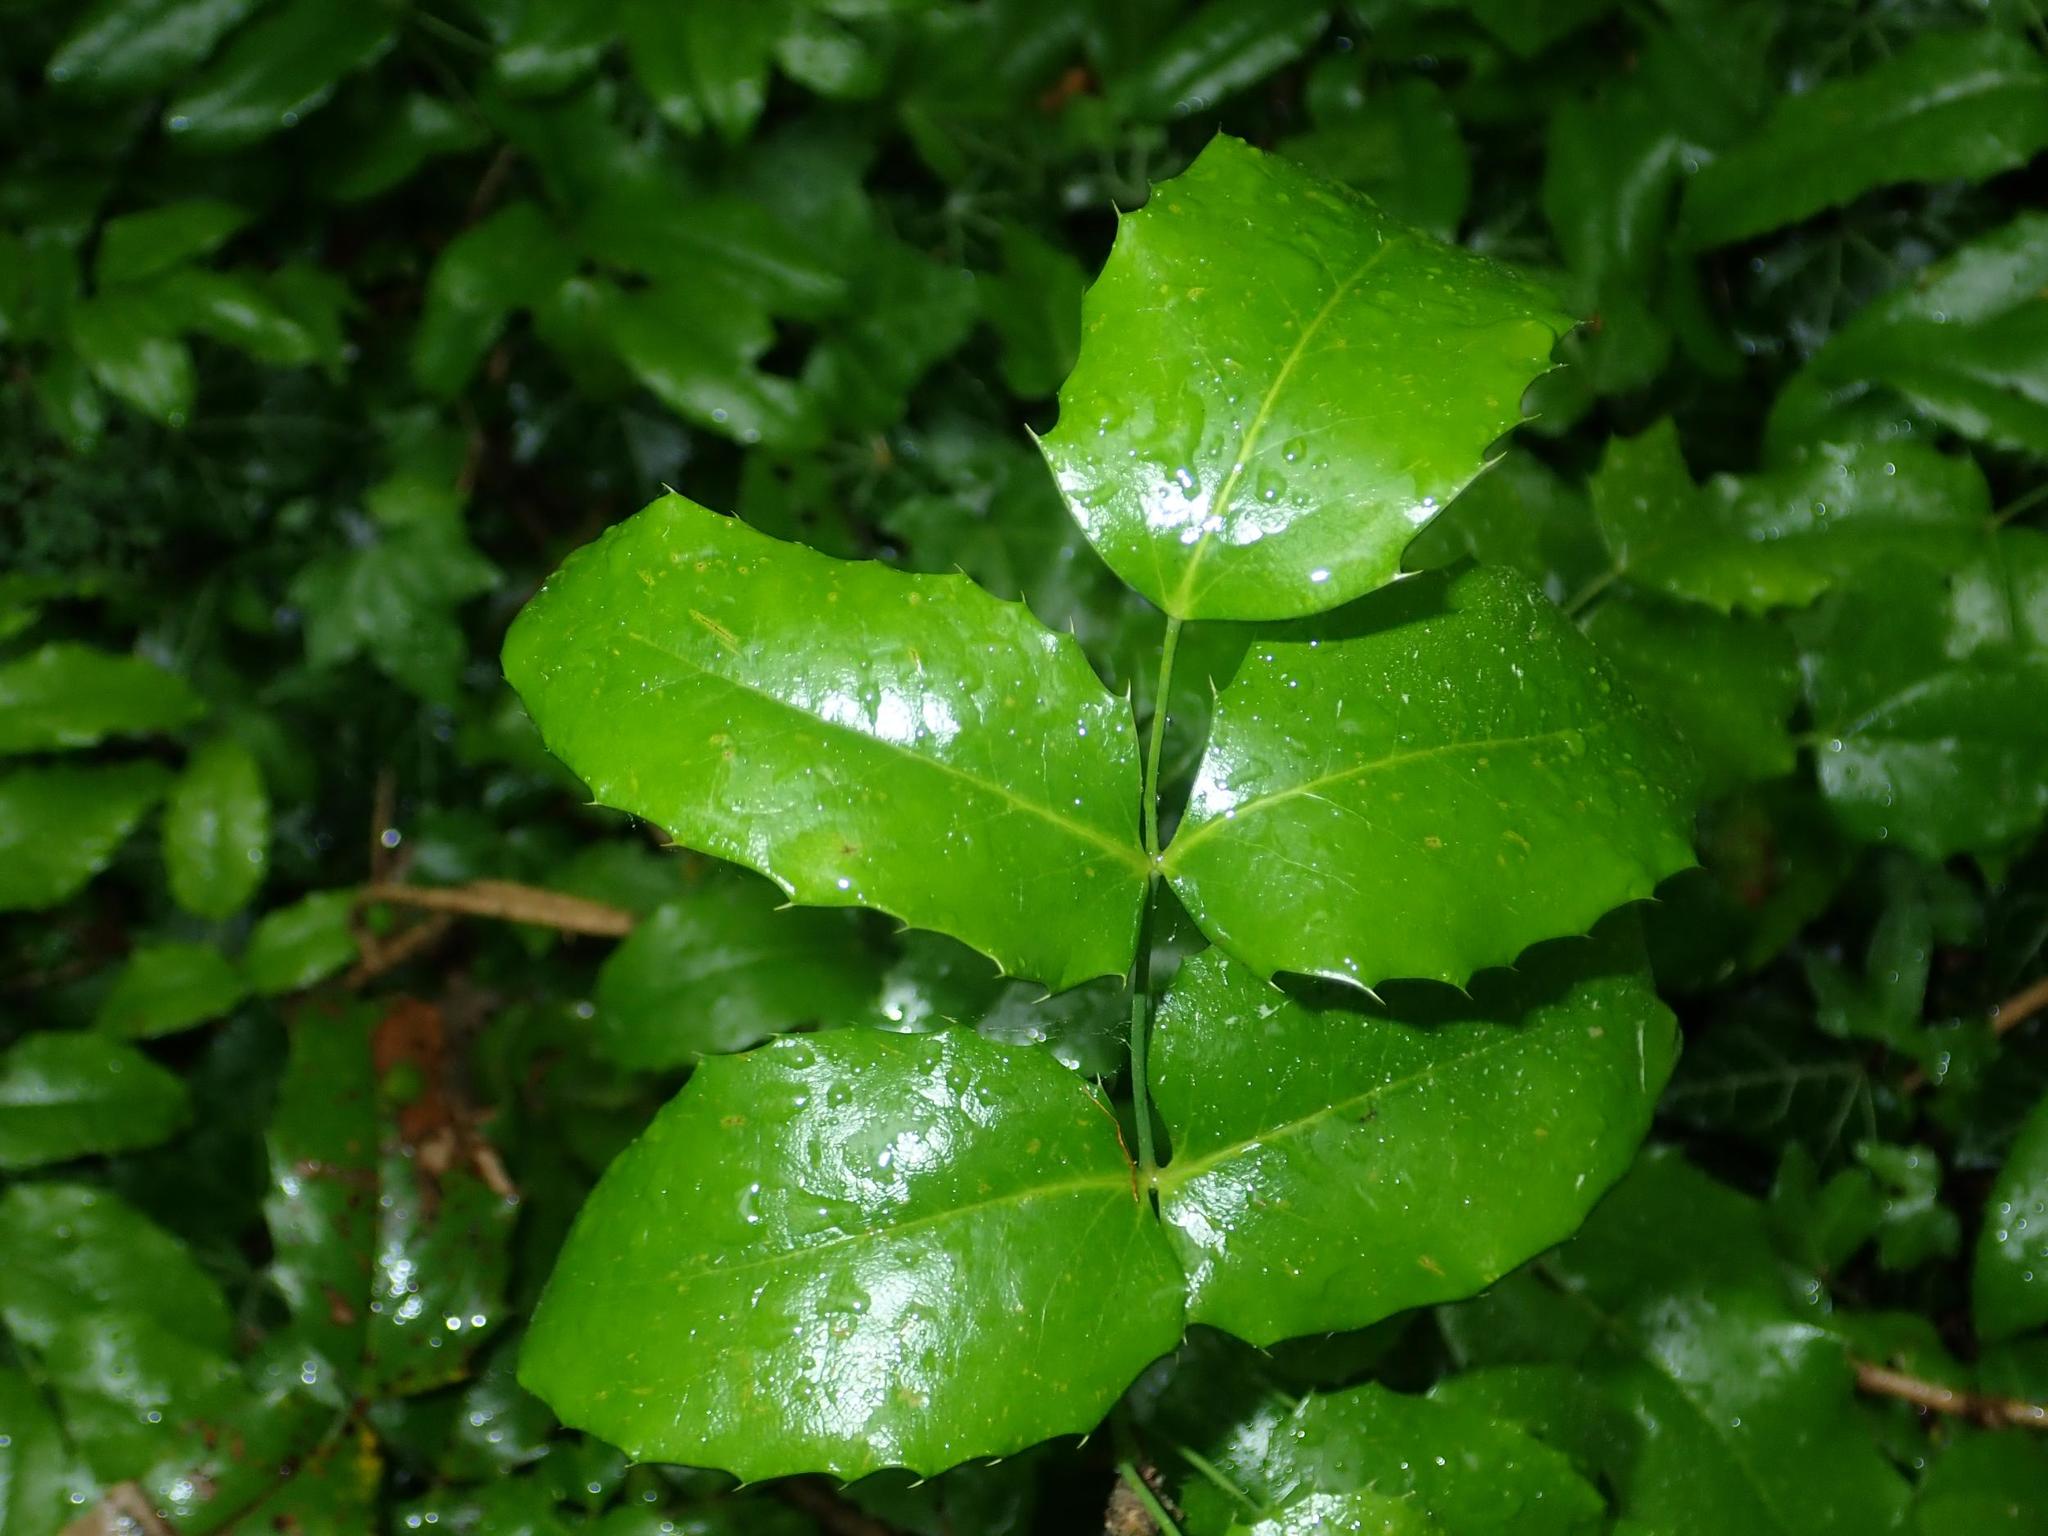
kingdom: Plantae
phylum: Tracheophyta
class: Magnoliopsida
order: Ranunculales
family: Berberidaceae
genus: Mahonia
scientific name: Mahonia aquifolium
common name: Oregon-grape
